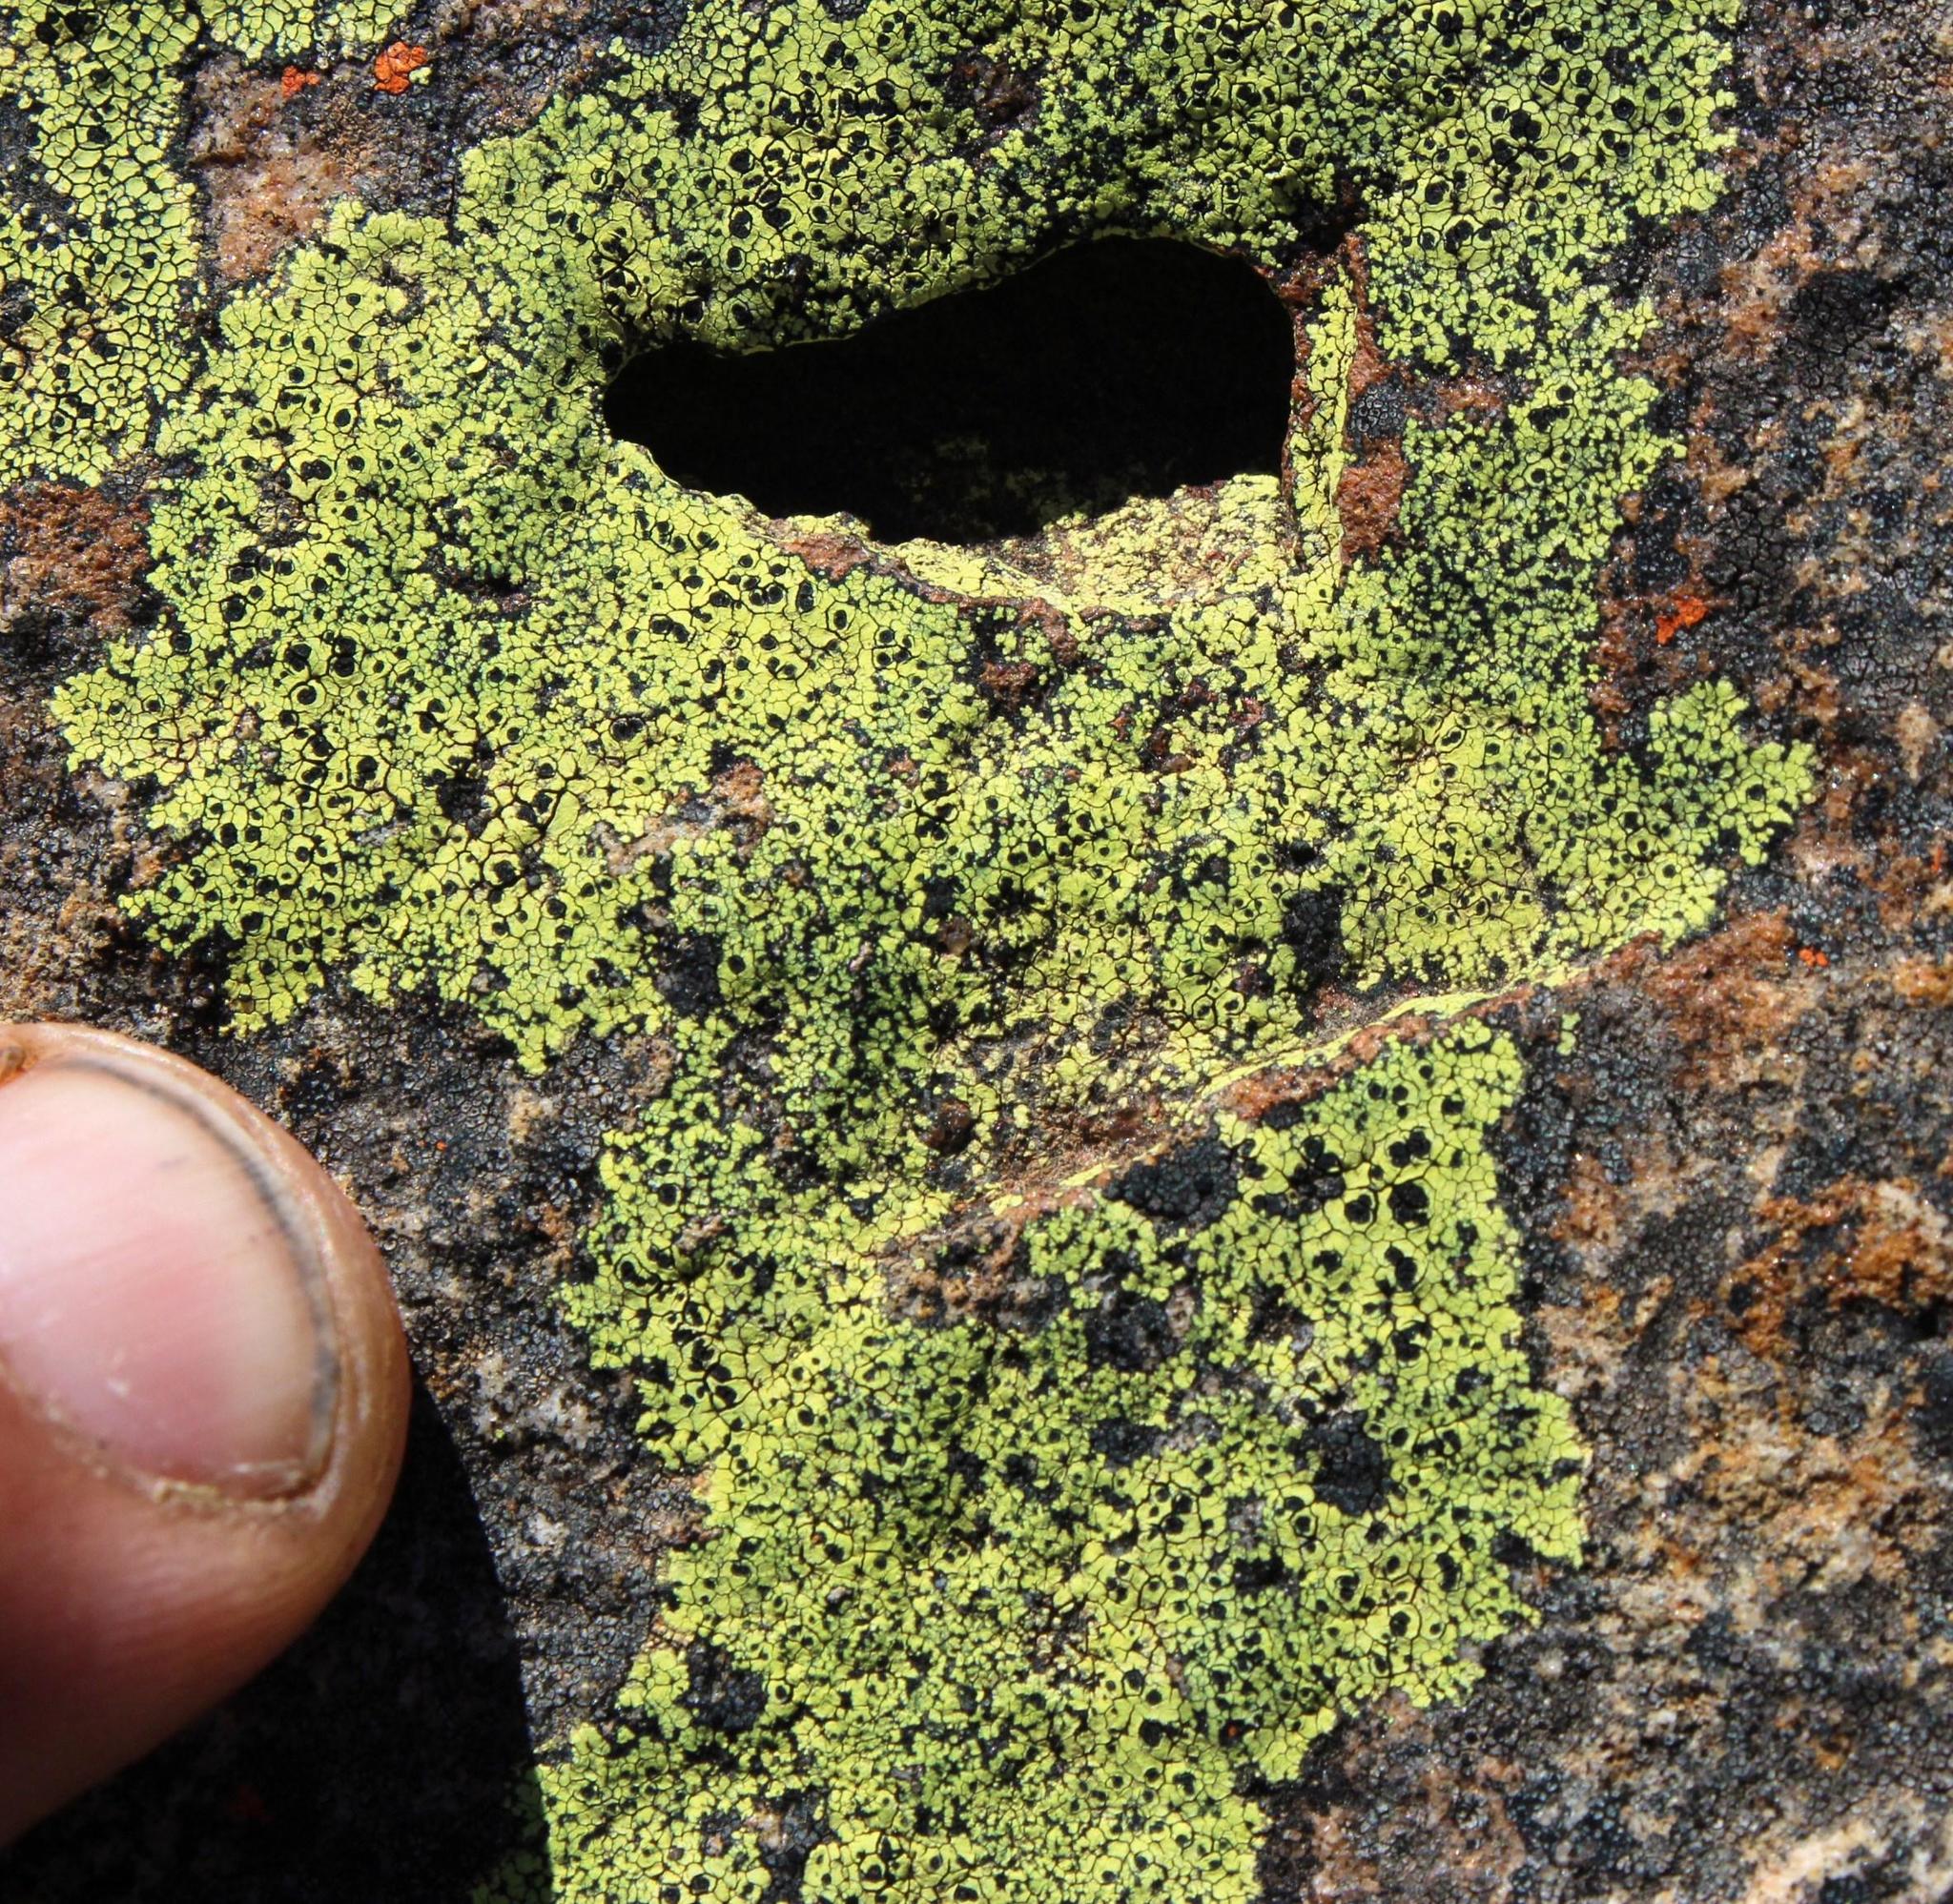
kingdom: Fungi
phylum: Ascomycota
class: Lecanoromycetes
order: Rhizocarpales
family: Rhizocarpaceae
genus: Rhizocarpon
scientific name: Rhizocarpon lecanorinum
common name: Crescent map lichen
